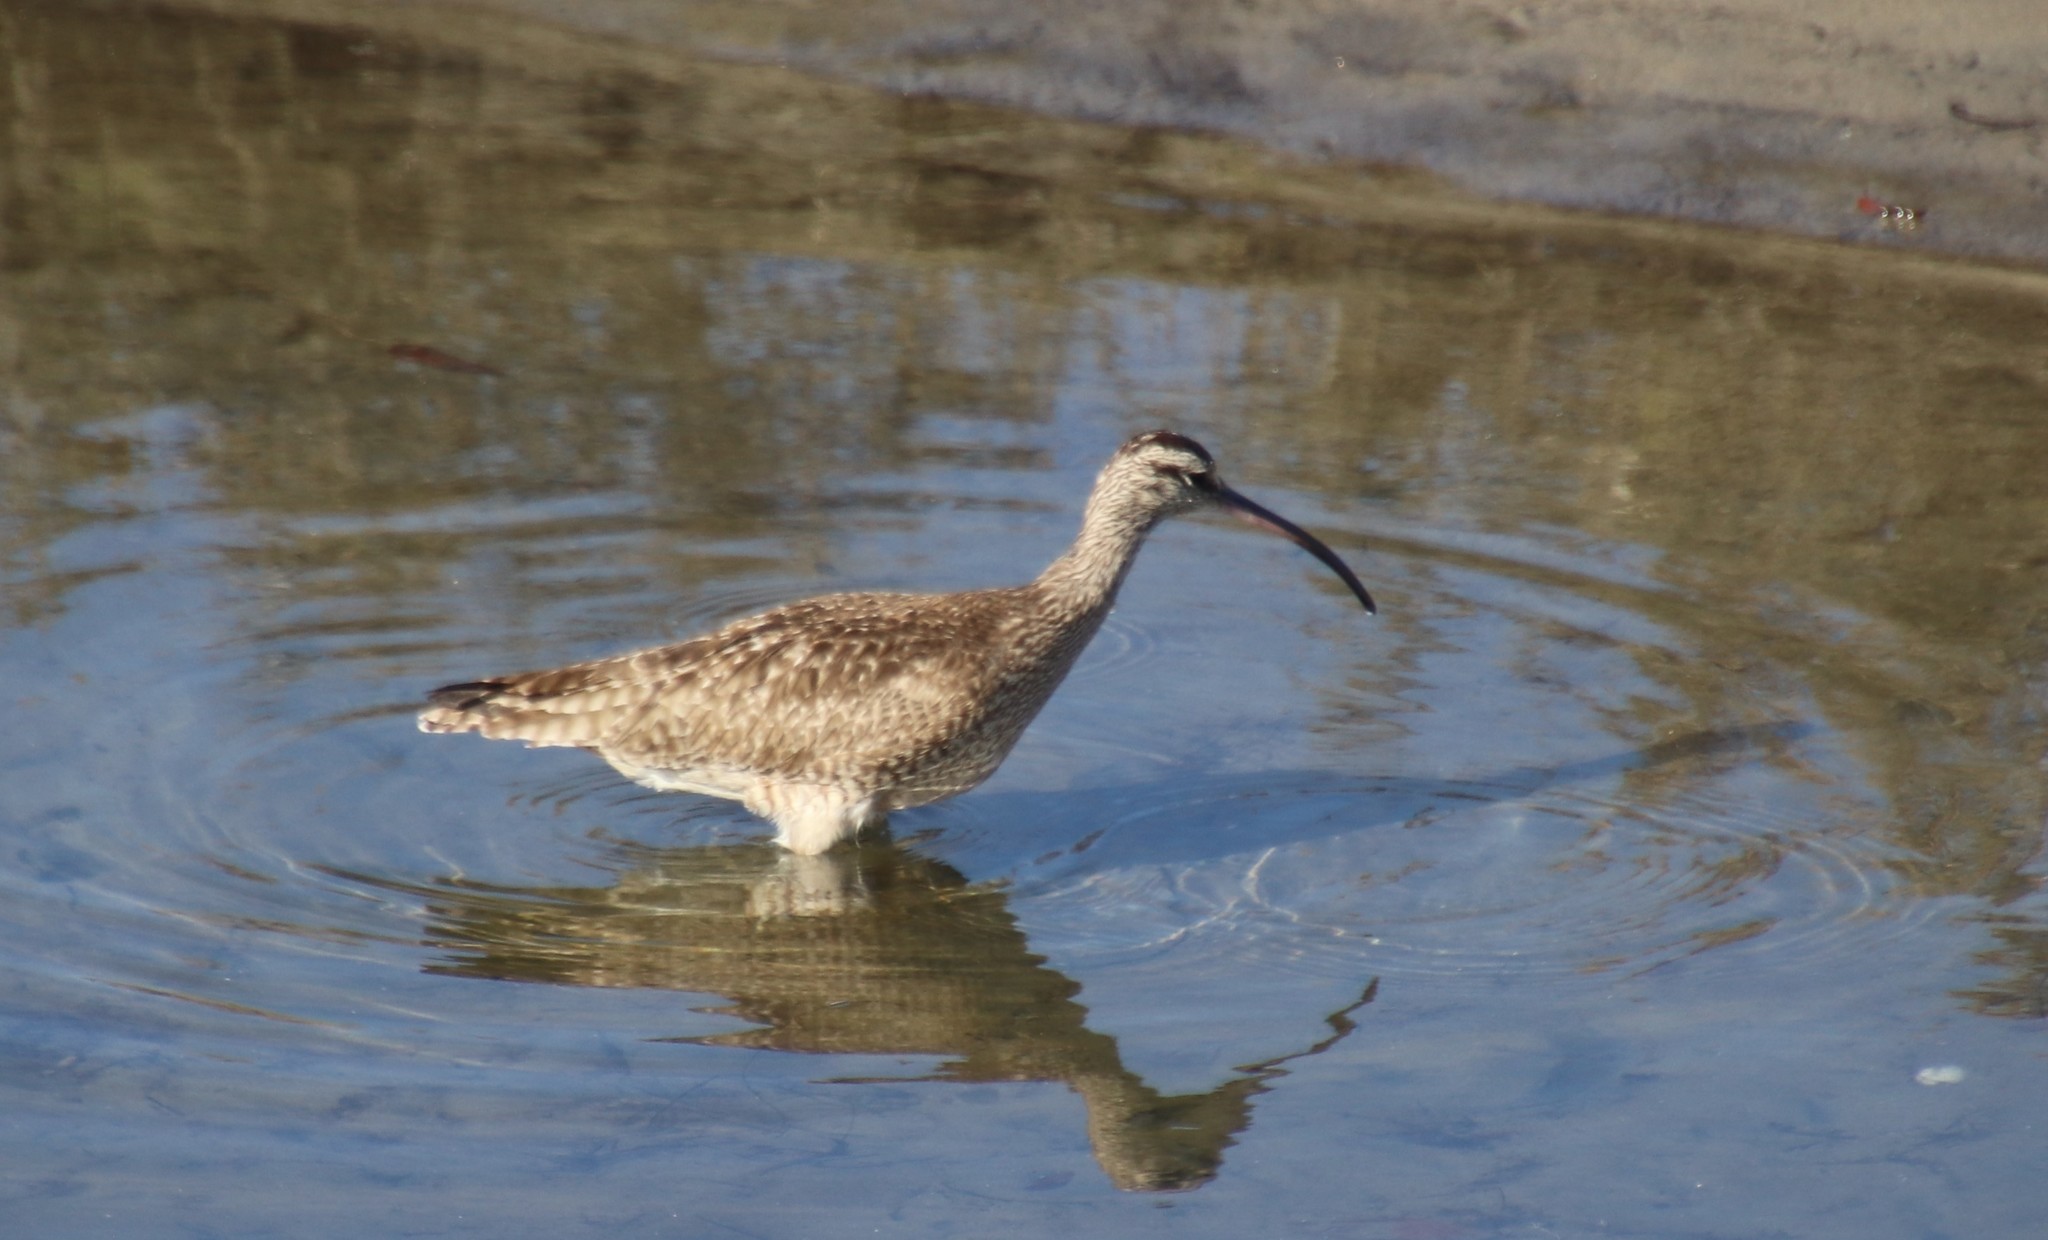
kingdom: Animalia
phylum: Chordata
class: Aves
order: Charadriiformes
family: Scolopacidae
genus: Numenius
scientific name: Numenius phaeopus
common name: Whimbrel
